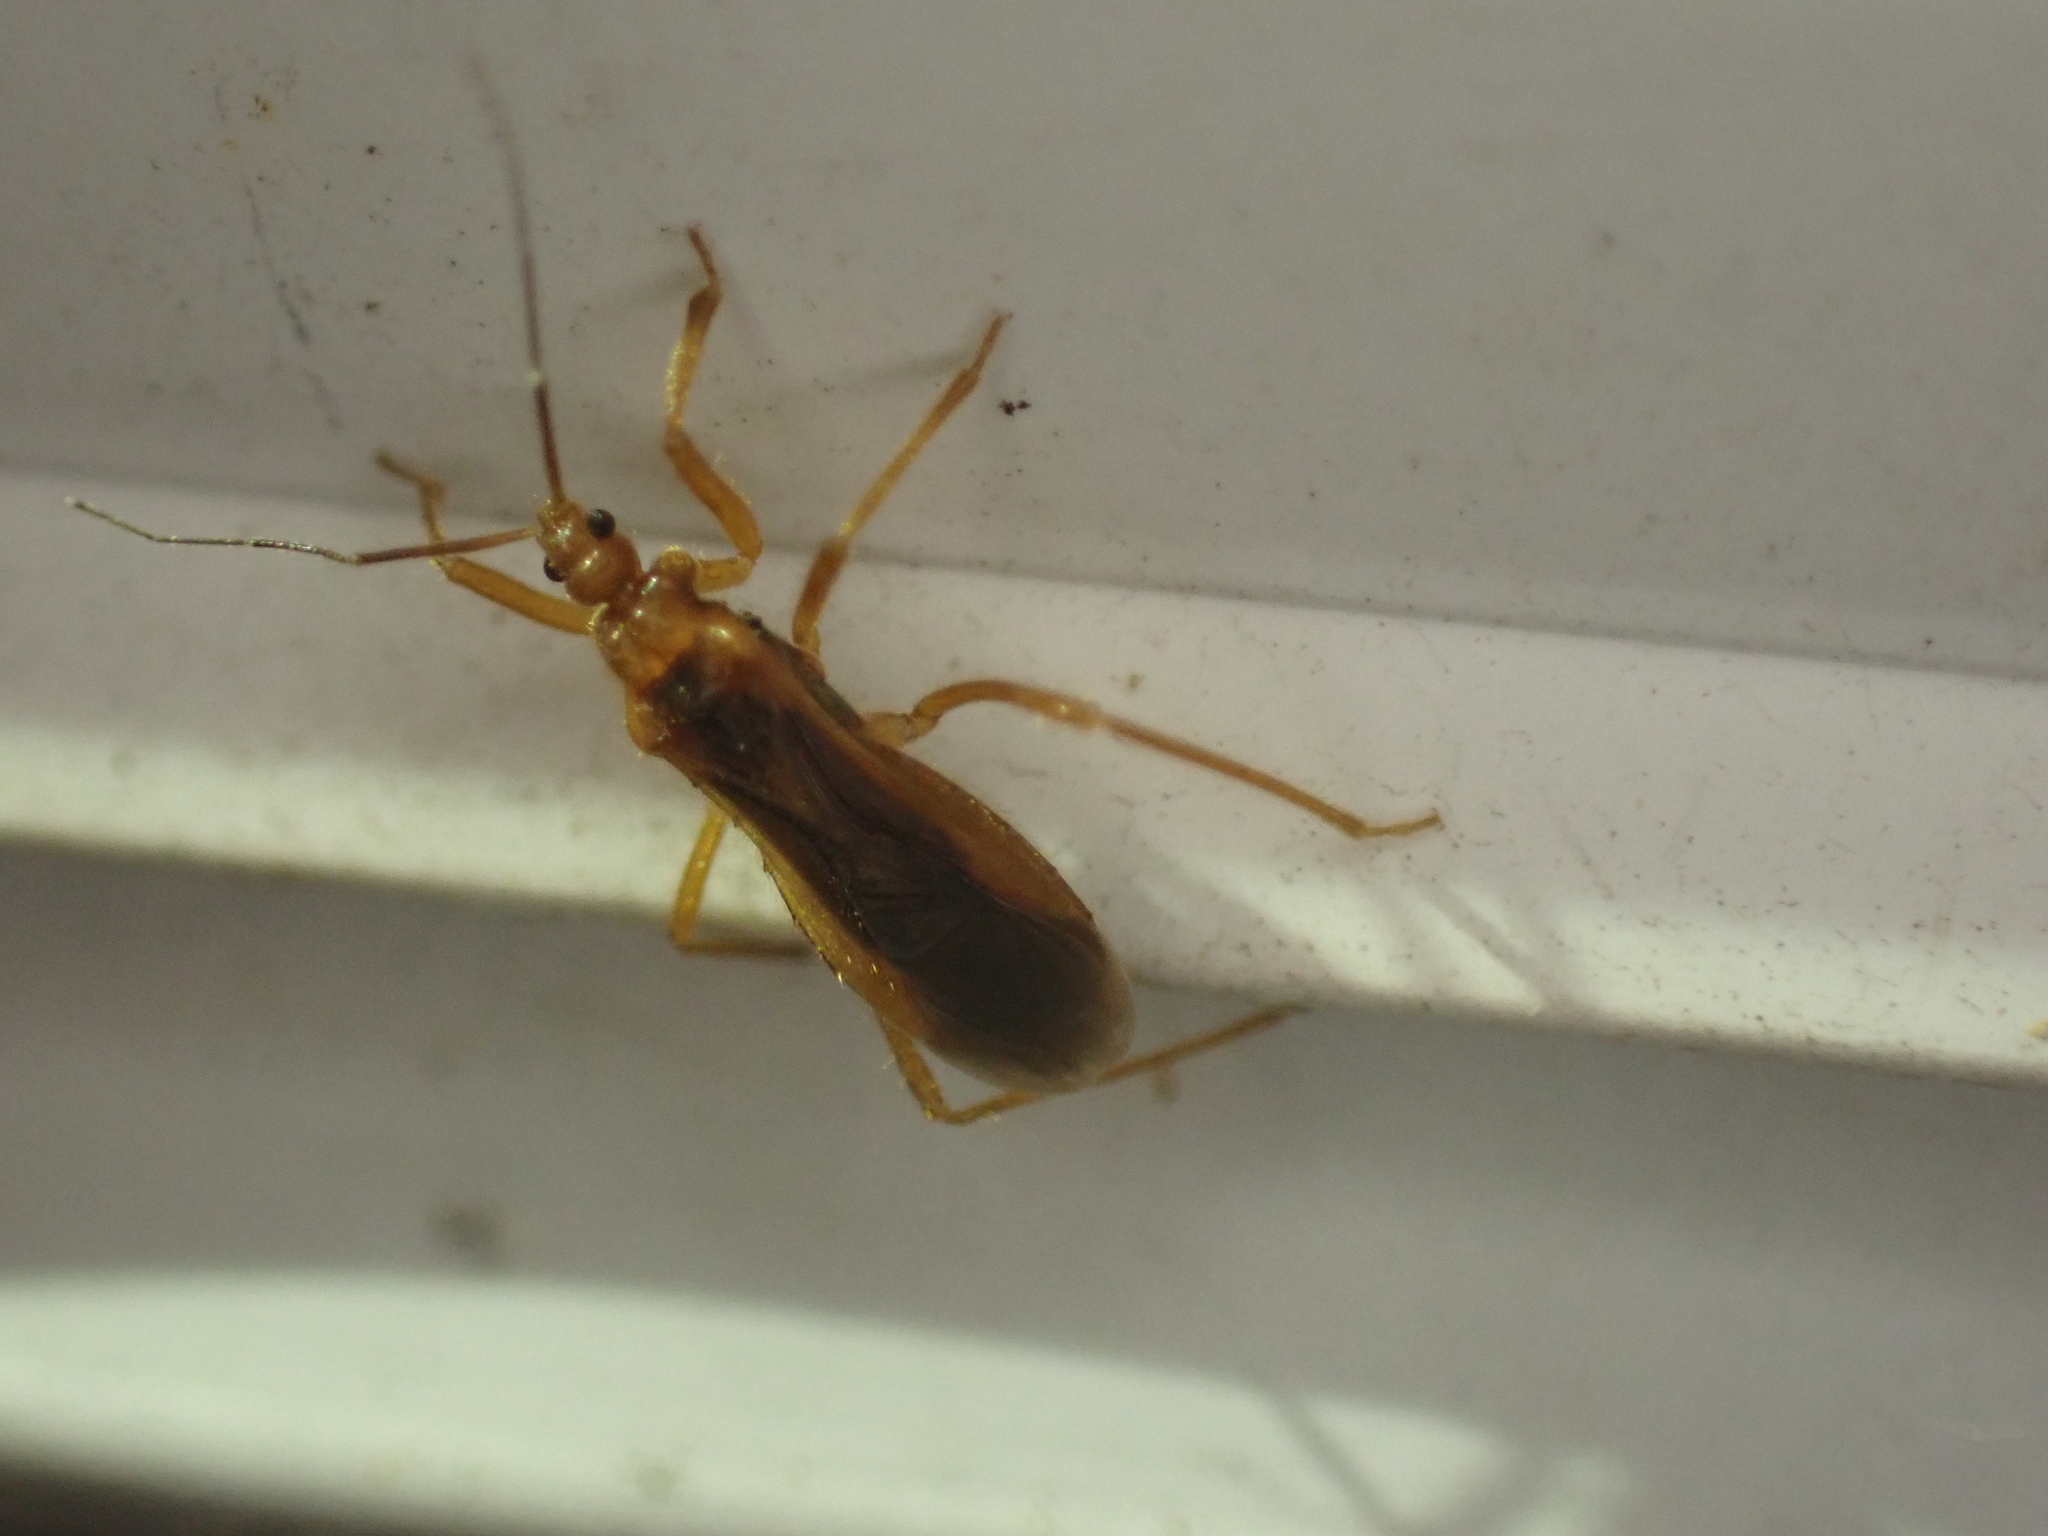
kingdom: Animalia
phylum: Arthropoda
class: Insecta
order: Hemiptera
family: Reduviidae
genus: Oncerotrachelus
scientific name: Oncerotrachelus acuminatus
